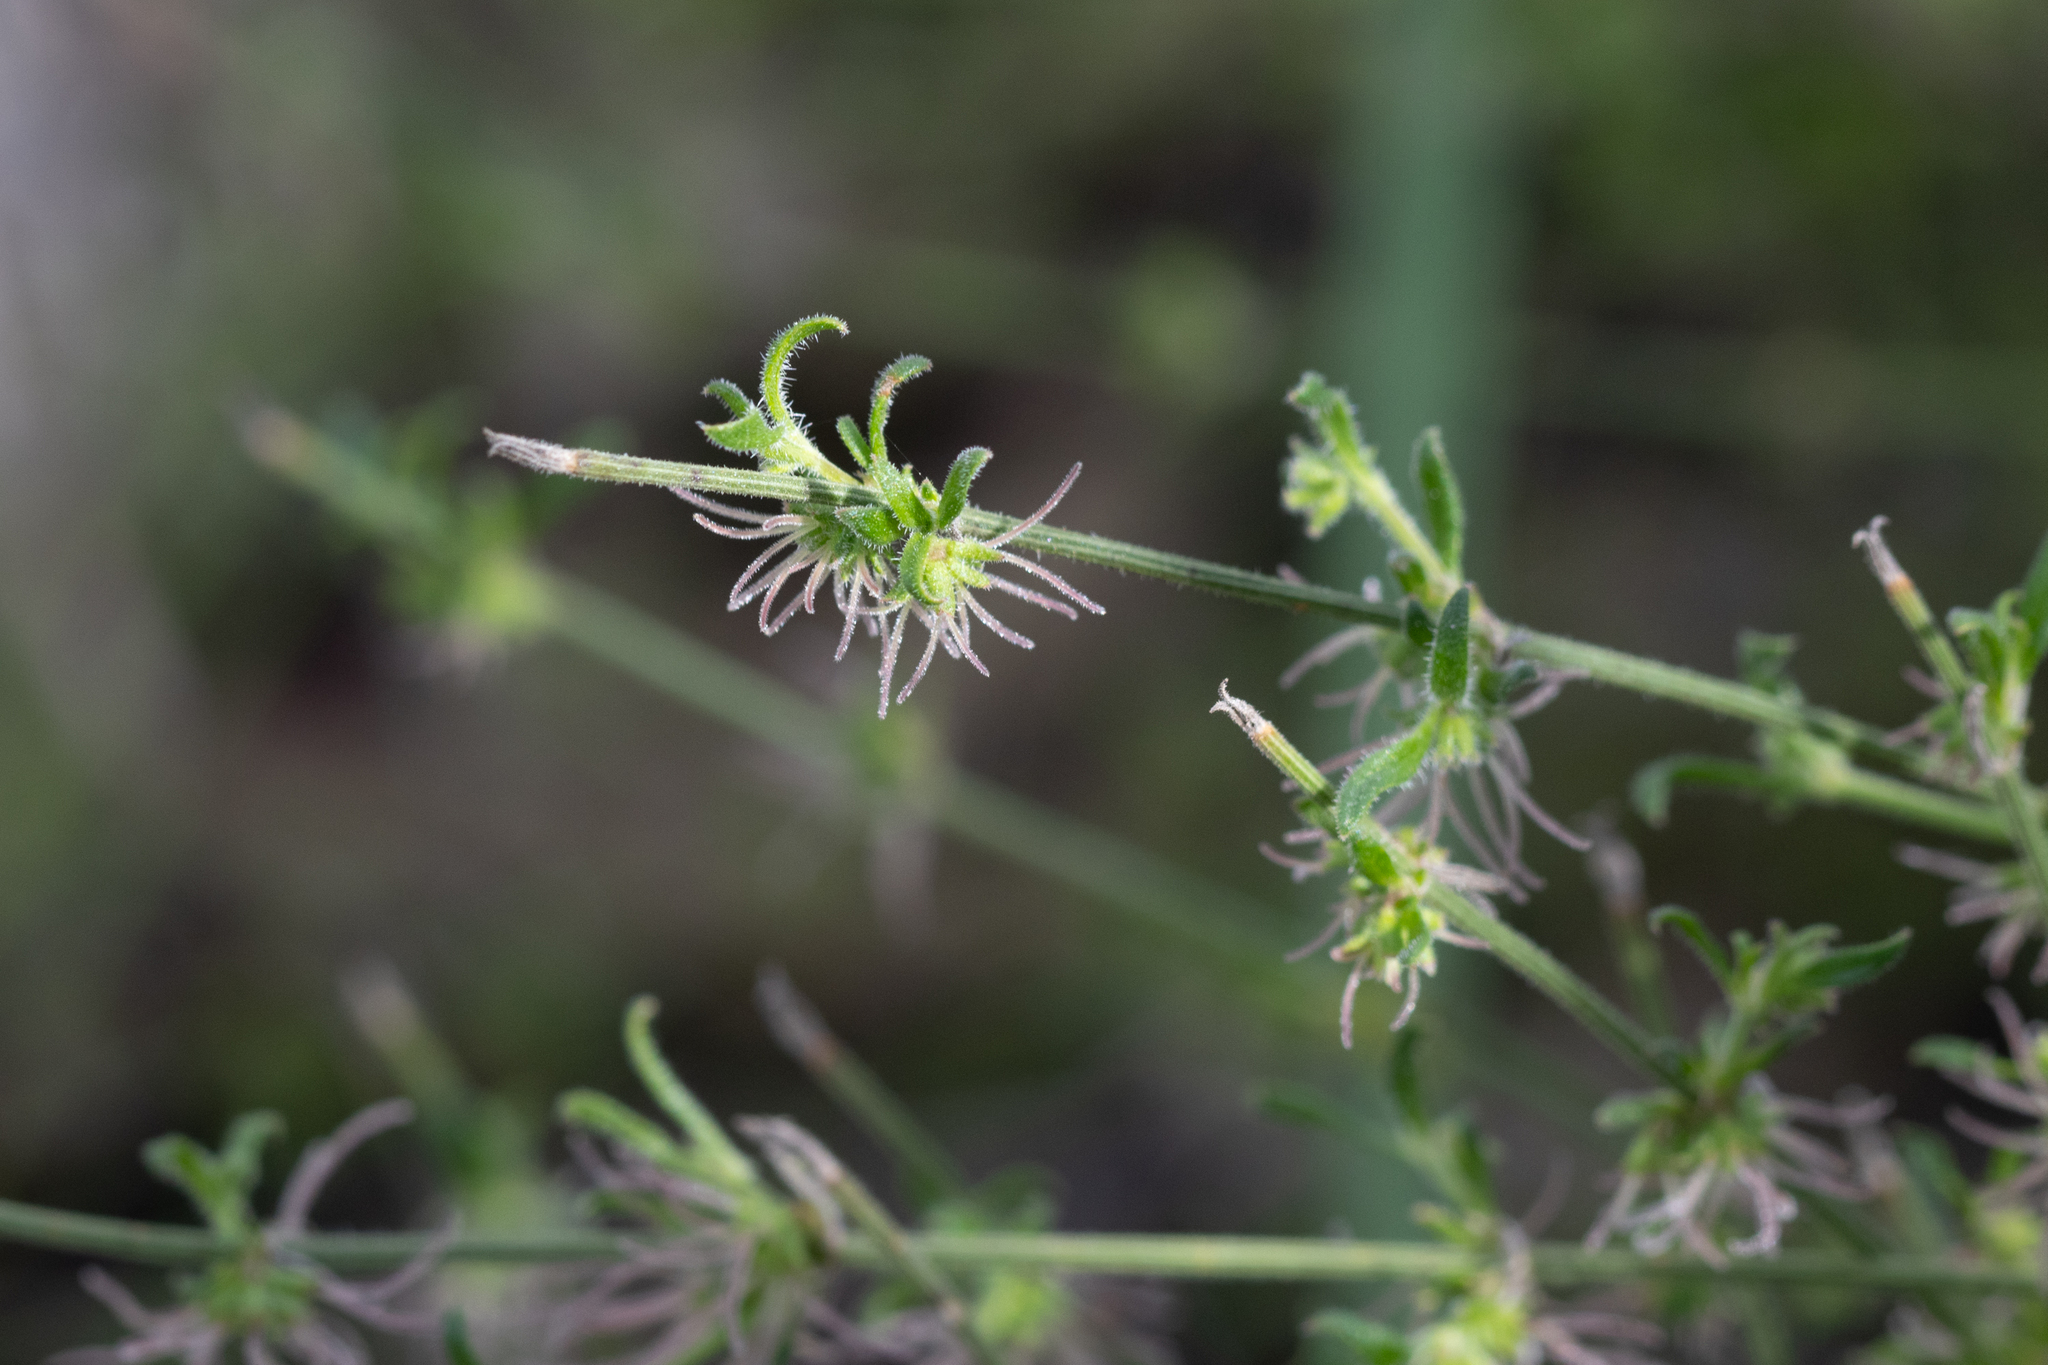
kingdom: Plantae
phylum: Tracheophyta
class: Magnoliopsida
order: Gentianales
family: Rubiaceae
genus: Opercularia
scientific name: Opercularia turpis
